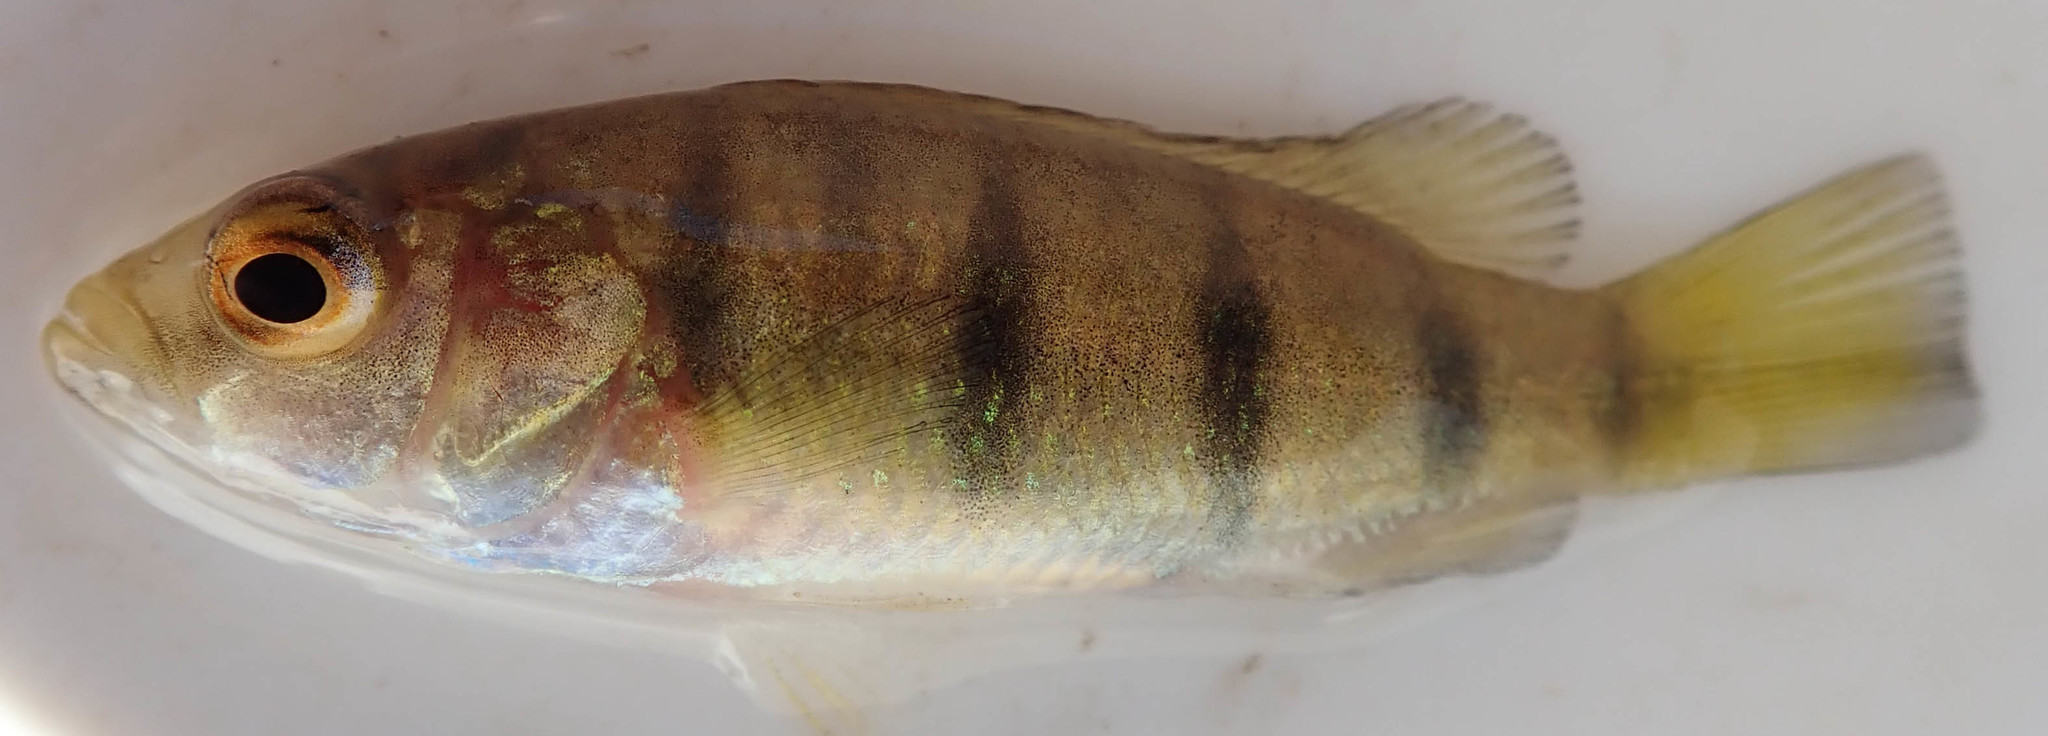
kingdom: Animalia
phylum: Chordata
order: Perciformes
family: Cichlidae
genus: Hemichromis
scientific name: Hemichromis elongatus
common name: Jewel cichlid
